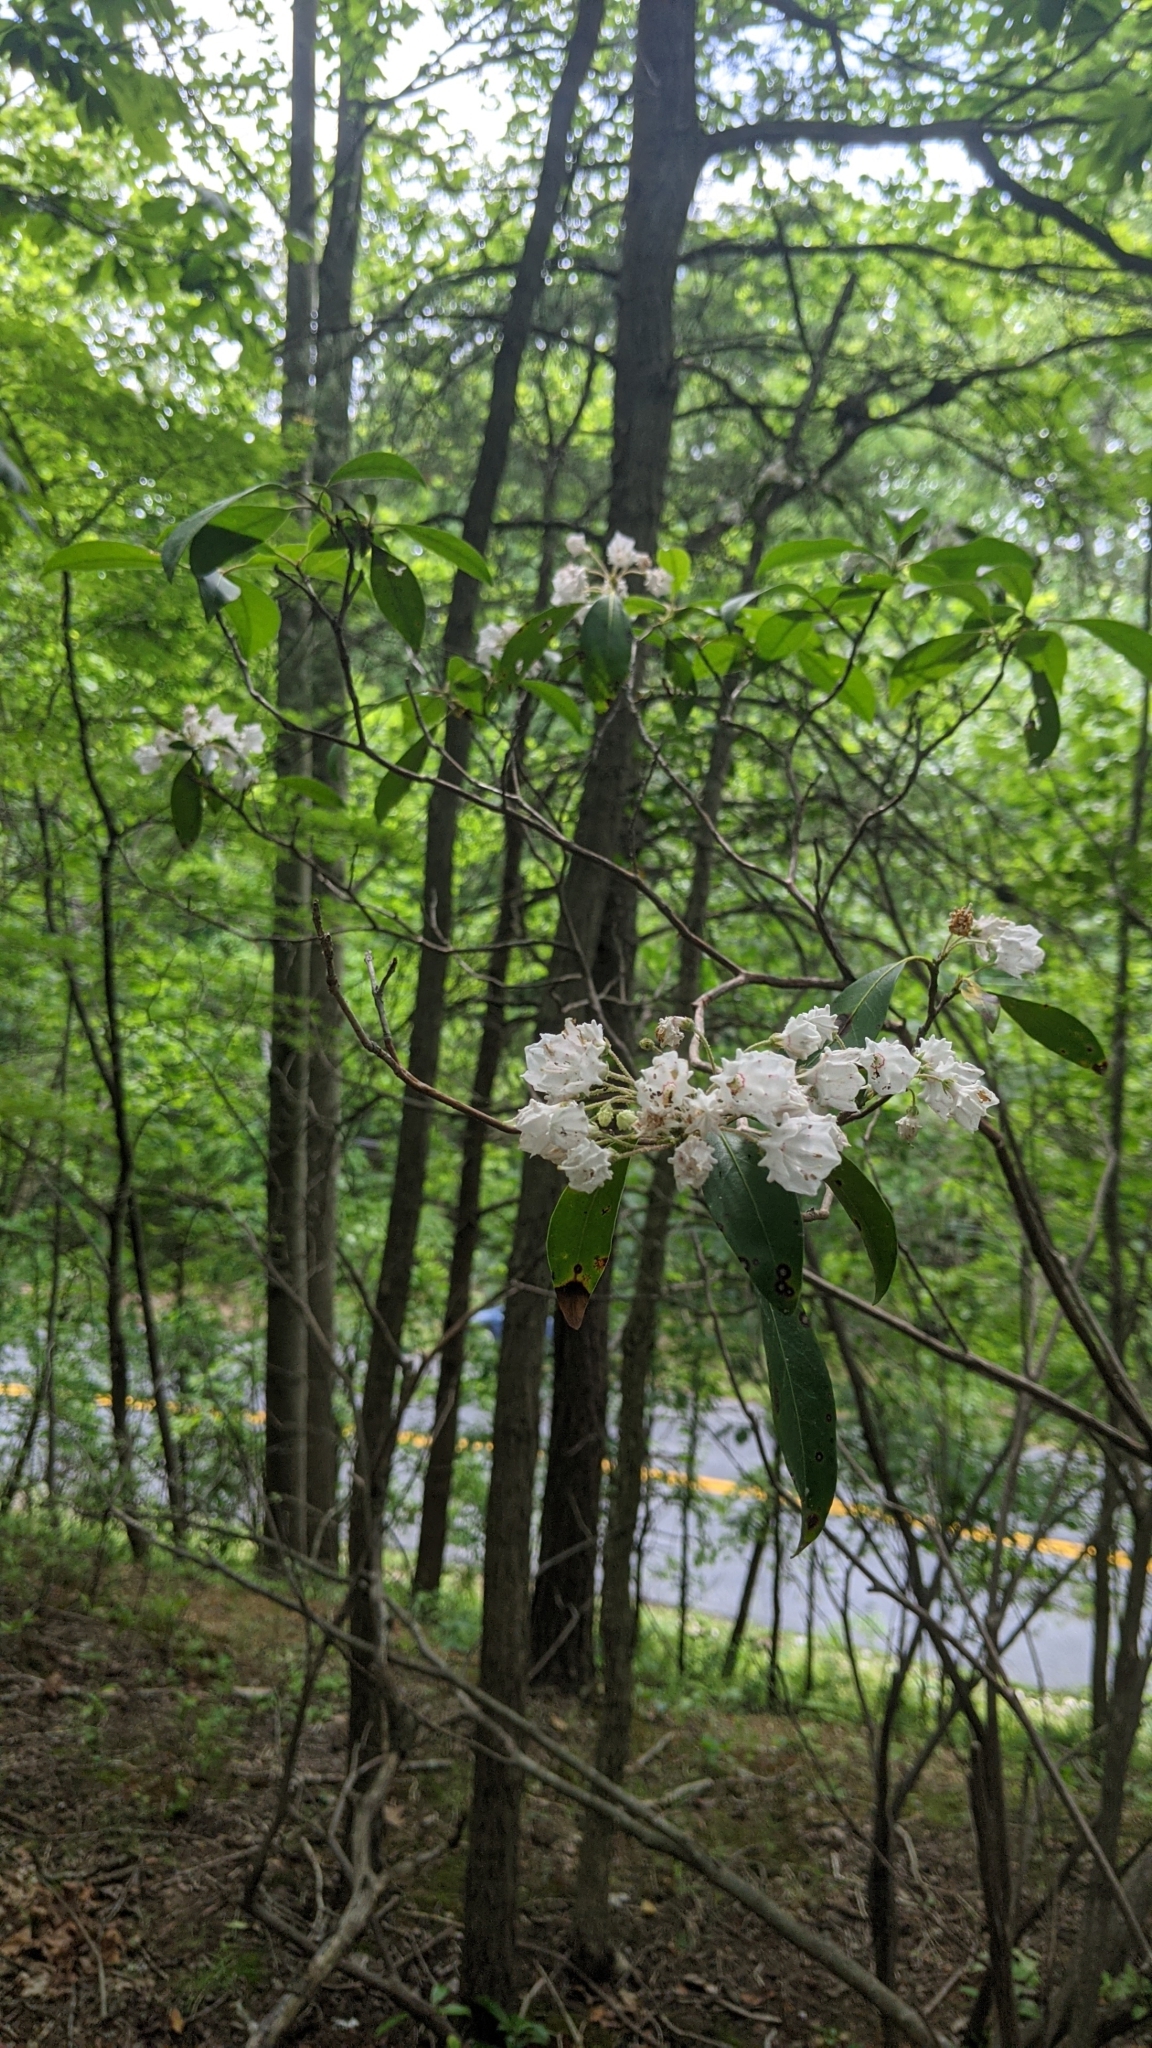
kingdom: Plantae
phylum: Tracheophyta
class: Magnoliopsida
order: Ericales
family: Ericaceae
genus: Kalmia
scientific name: Kalmia latifolia
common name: Mountain-laurel
